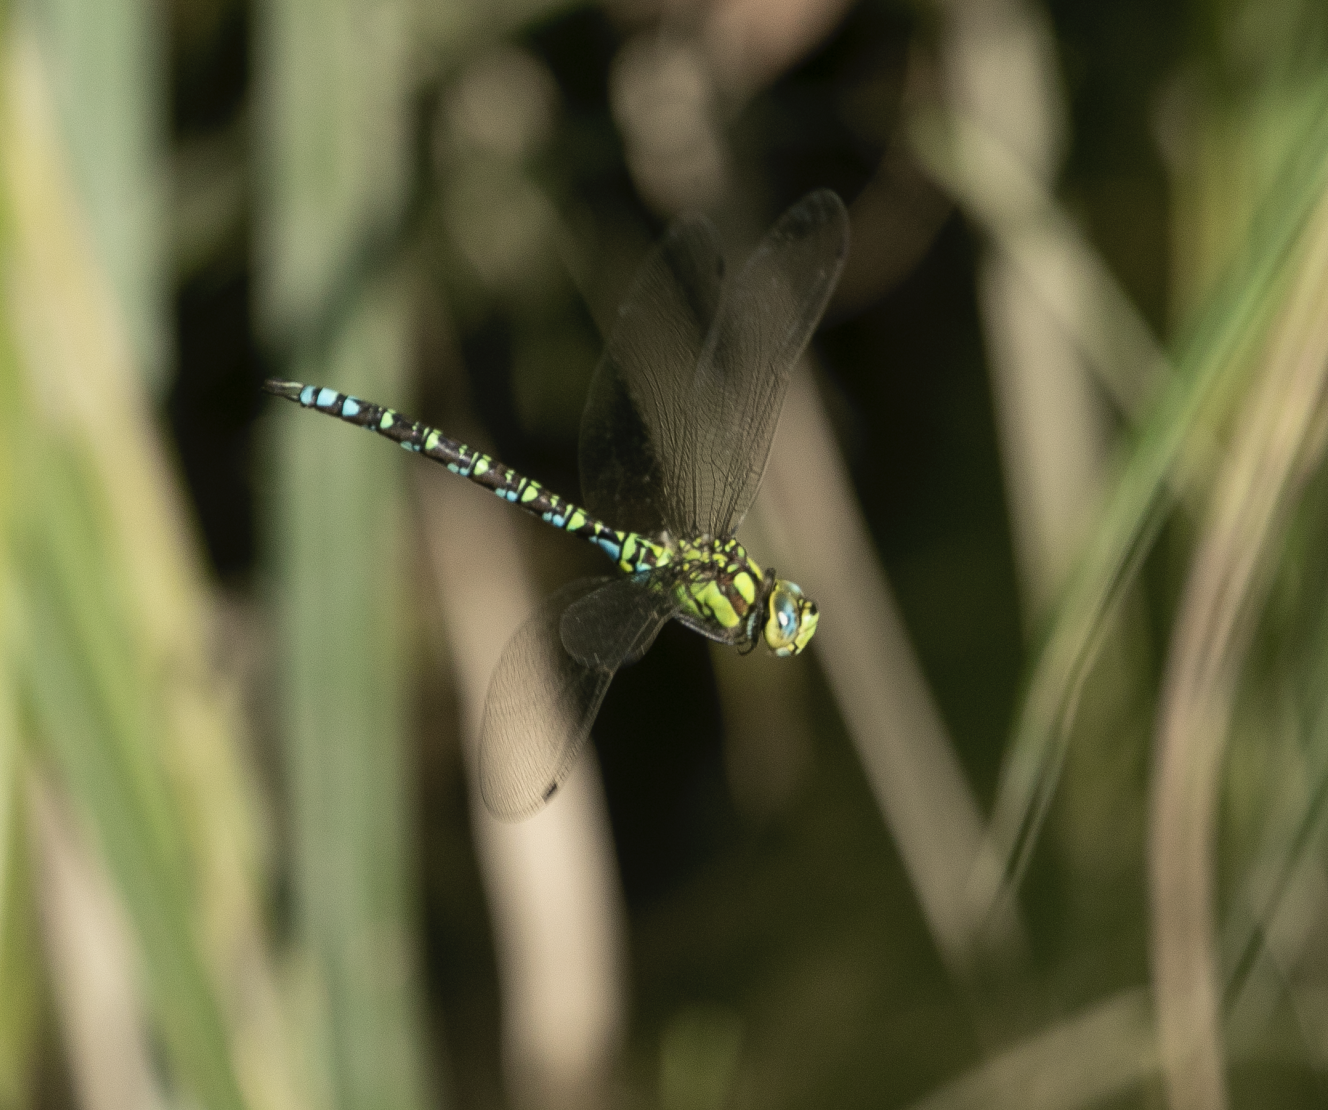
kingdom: Animalia
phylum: Arthropoda
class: Insecta
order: Odonata
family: Aeshnidae
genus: Aeshna
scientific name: Aeshna cyanea
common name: Southern hawker
